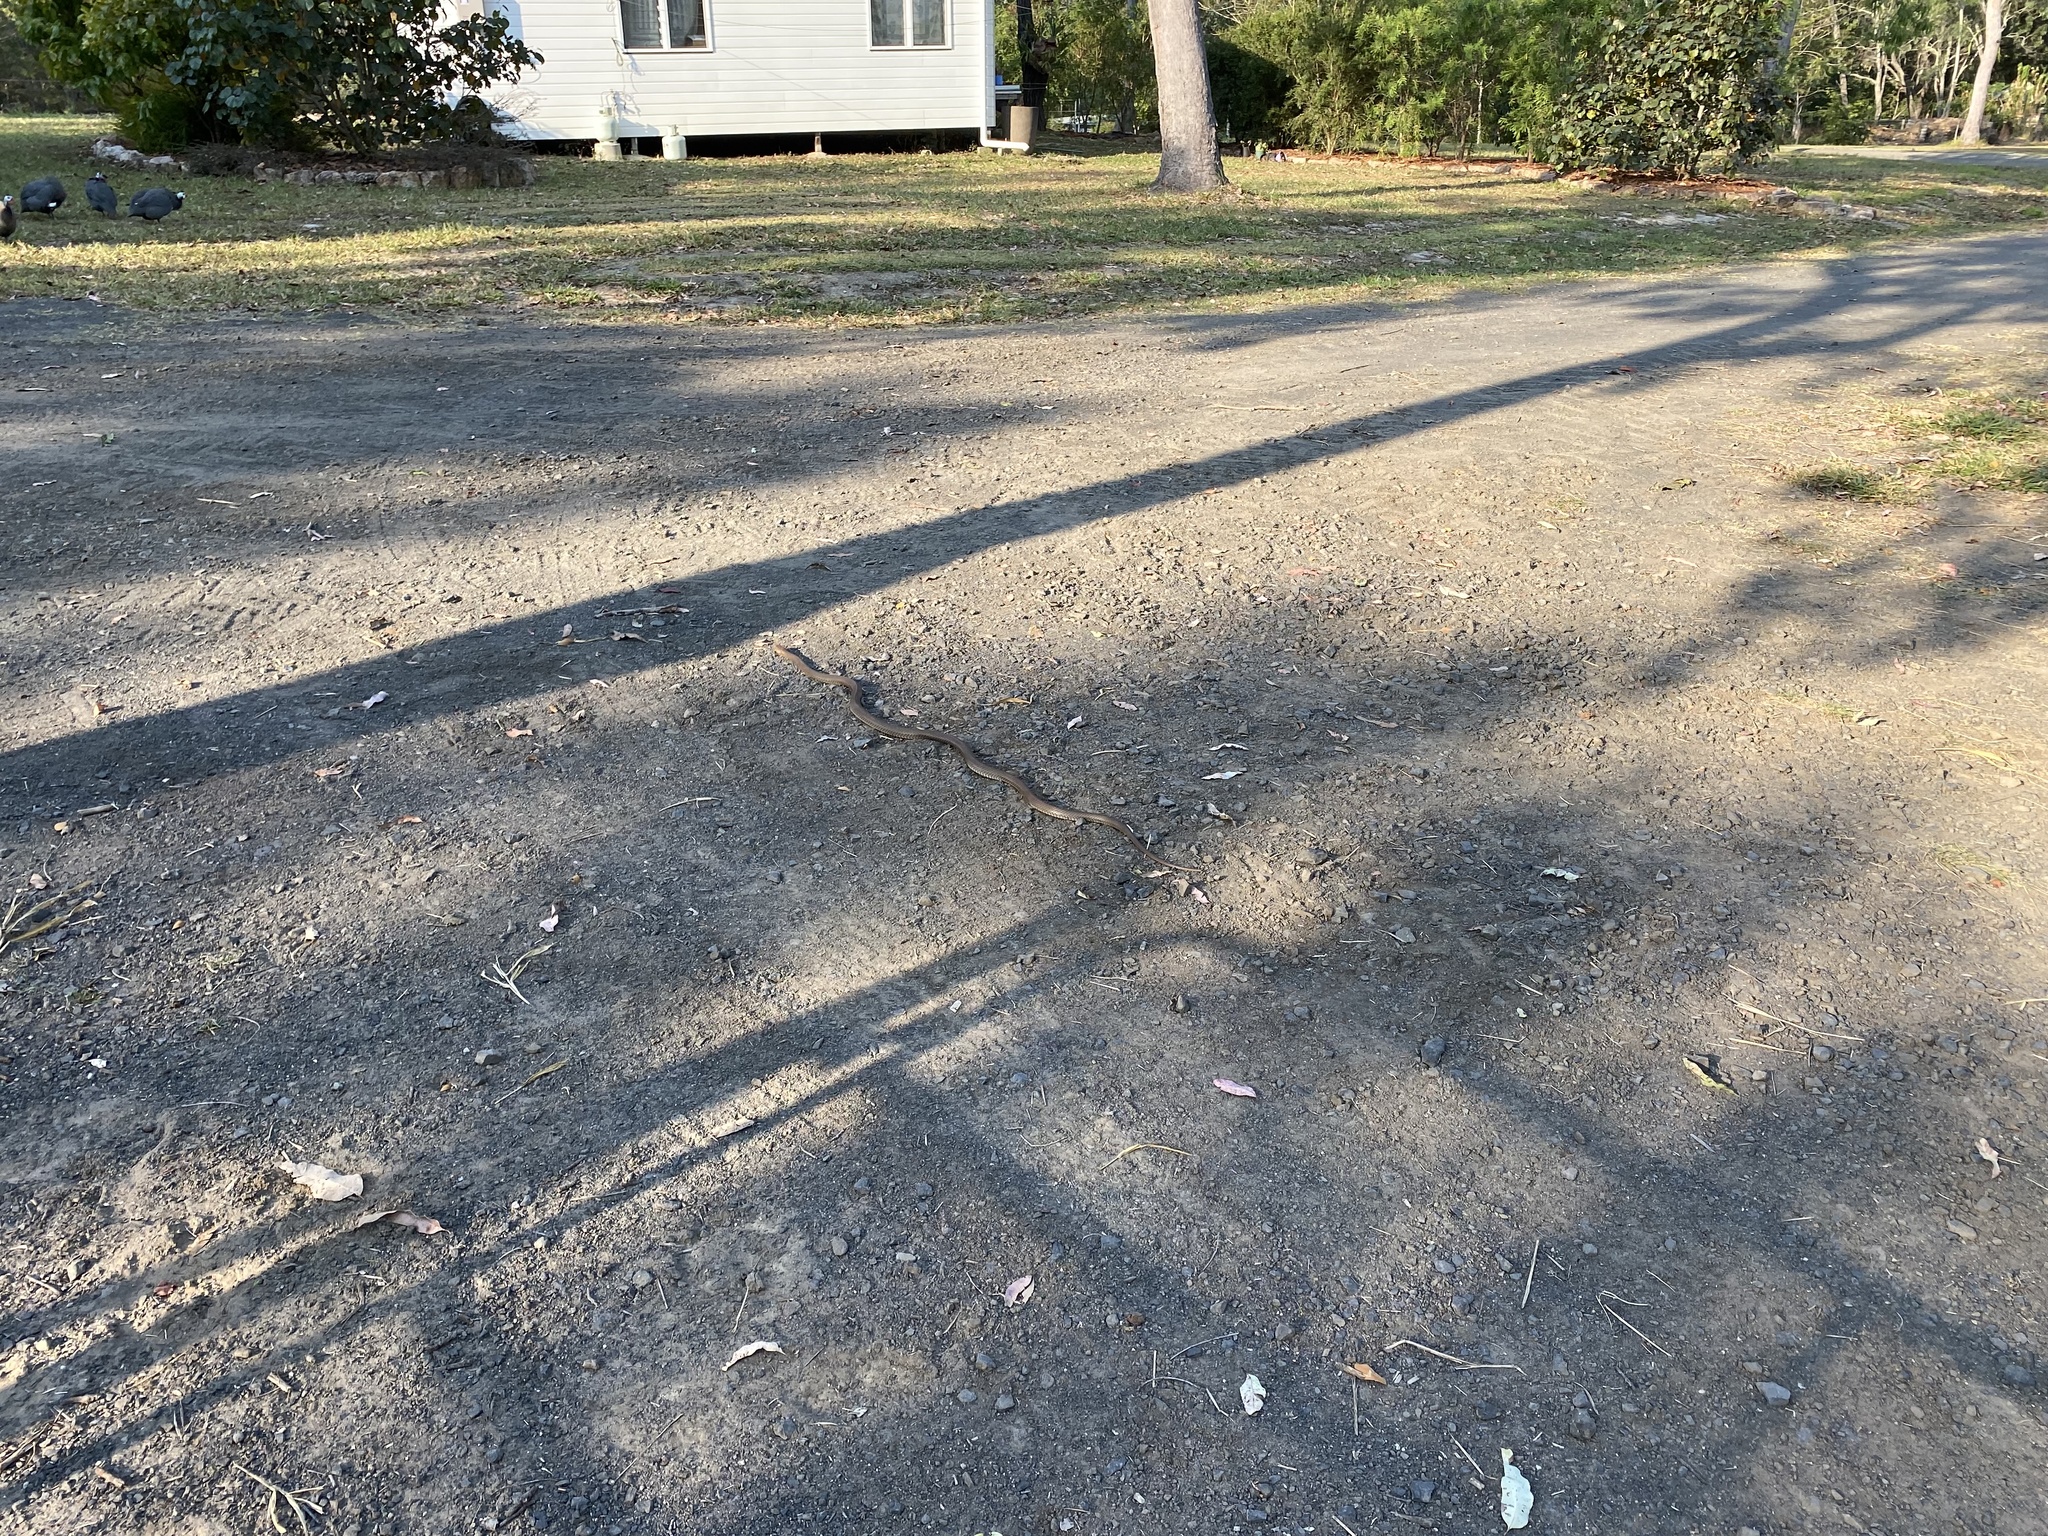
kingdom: Animalia
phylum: Chordata
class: Squamata
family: Elapidae
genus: Pseudonaja
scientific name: Pseudonaja textilis
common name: Eastern brown snake
